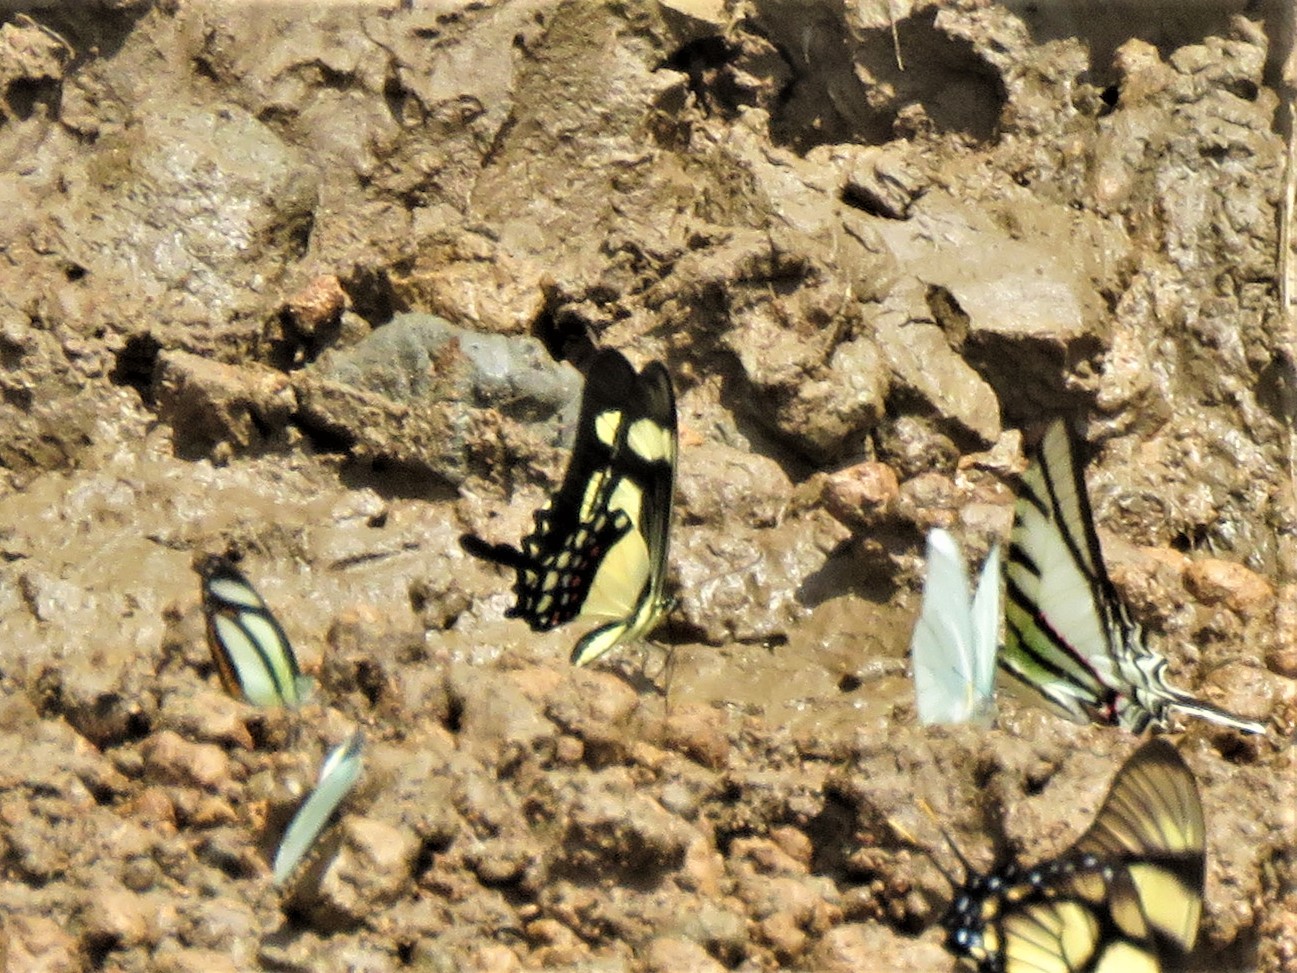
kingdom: Animalia
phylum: Arthropoda
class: Insecta
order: Lepidoptera
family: Papilionidae
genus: Papilio
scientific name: Papilio torquatus
